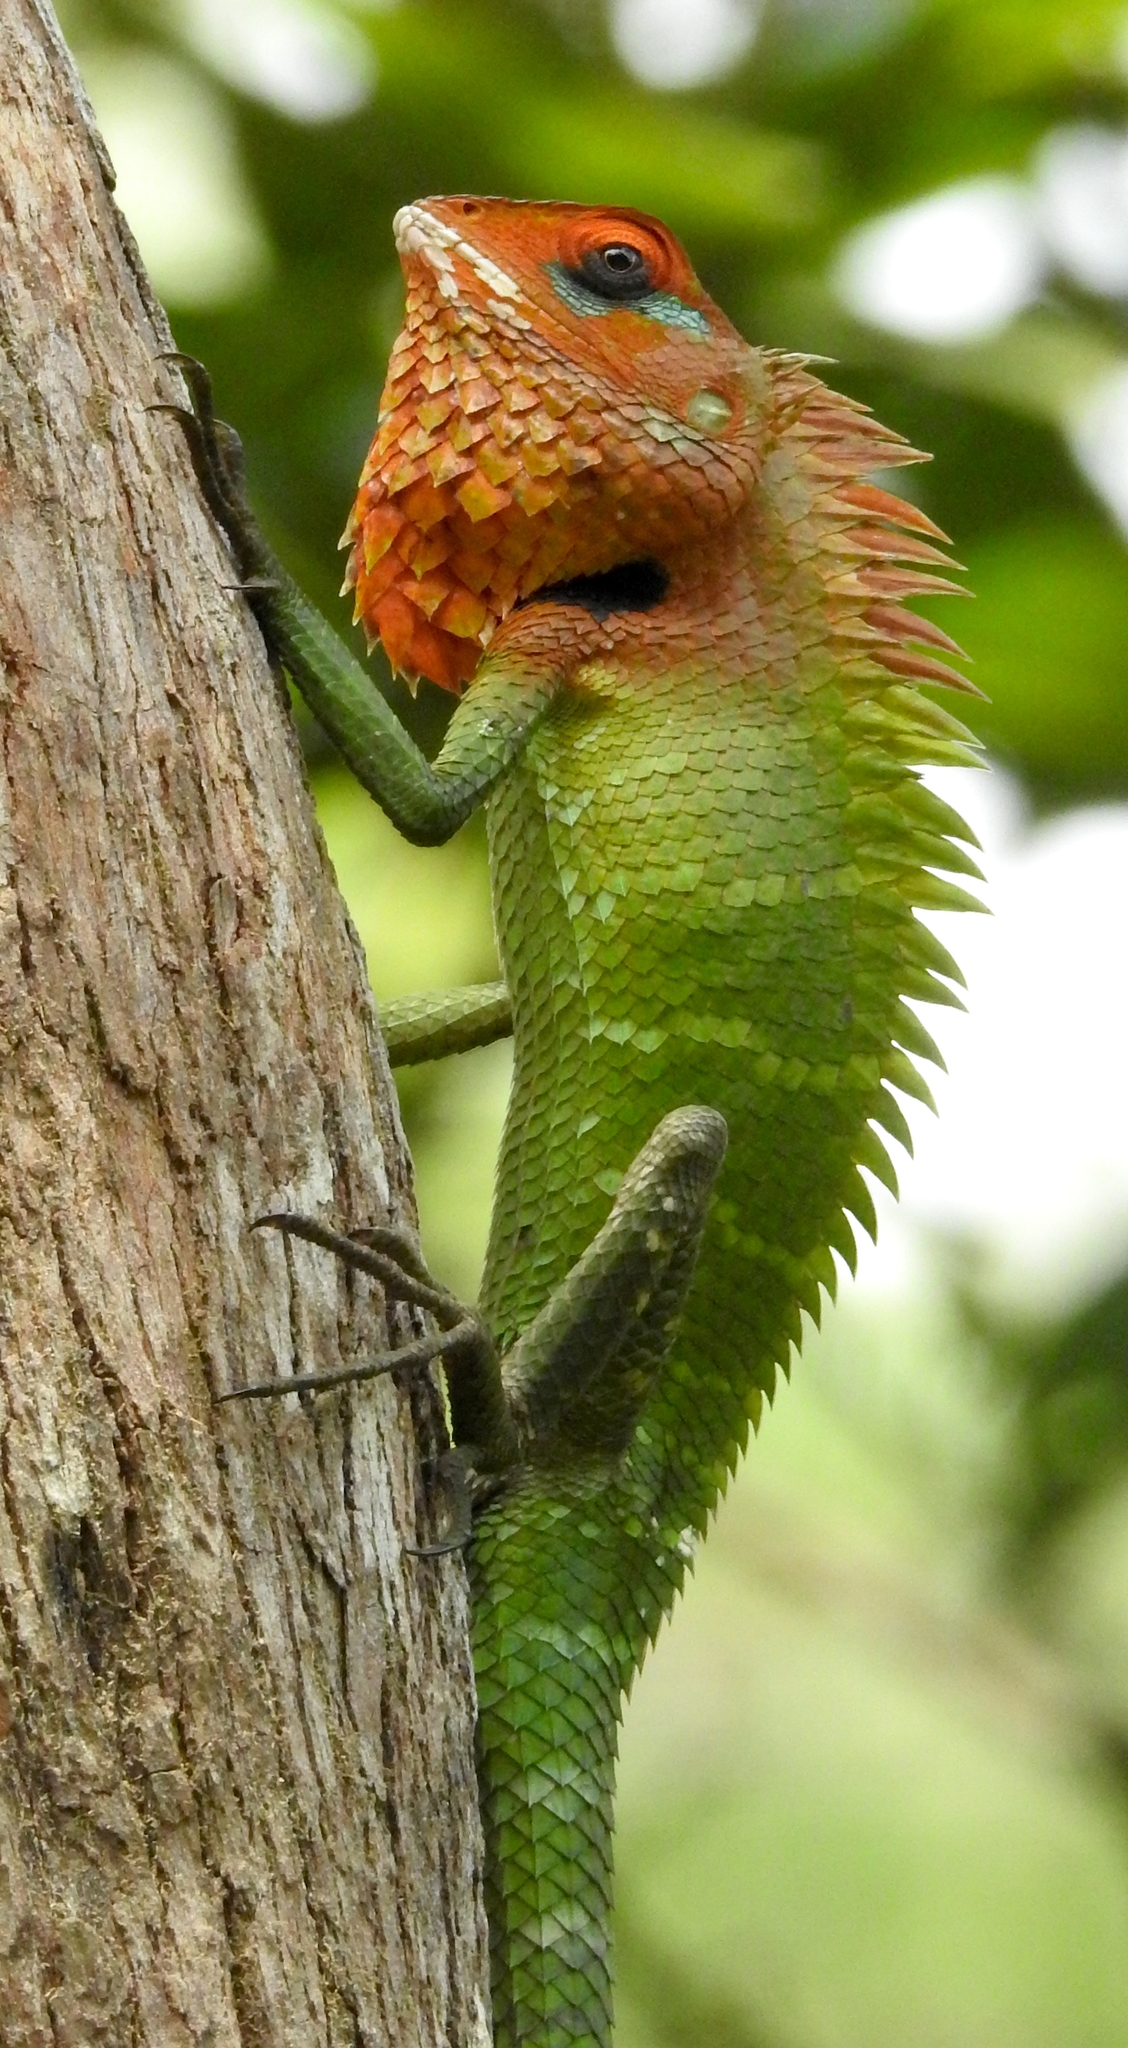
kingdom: Animalia
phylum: Chordata
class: Squamata
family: Agamidae
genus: Calotes
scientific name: Calotes calotes
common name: Common green forest lizard
